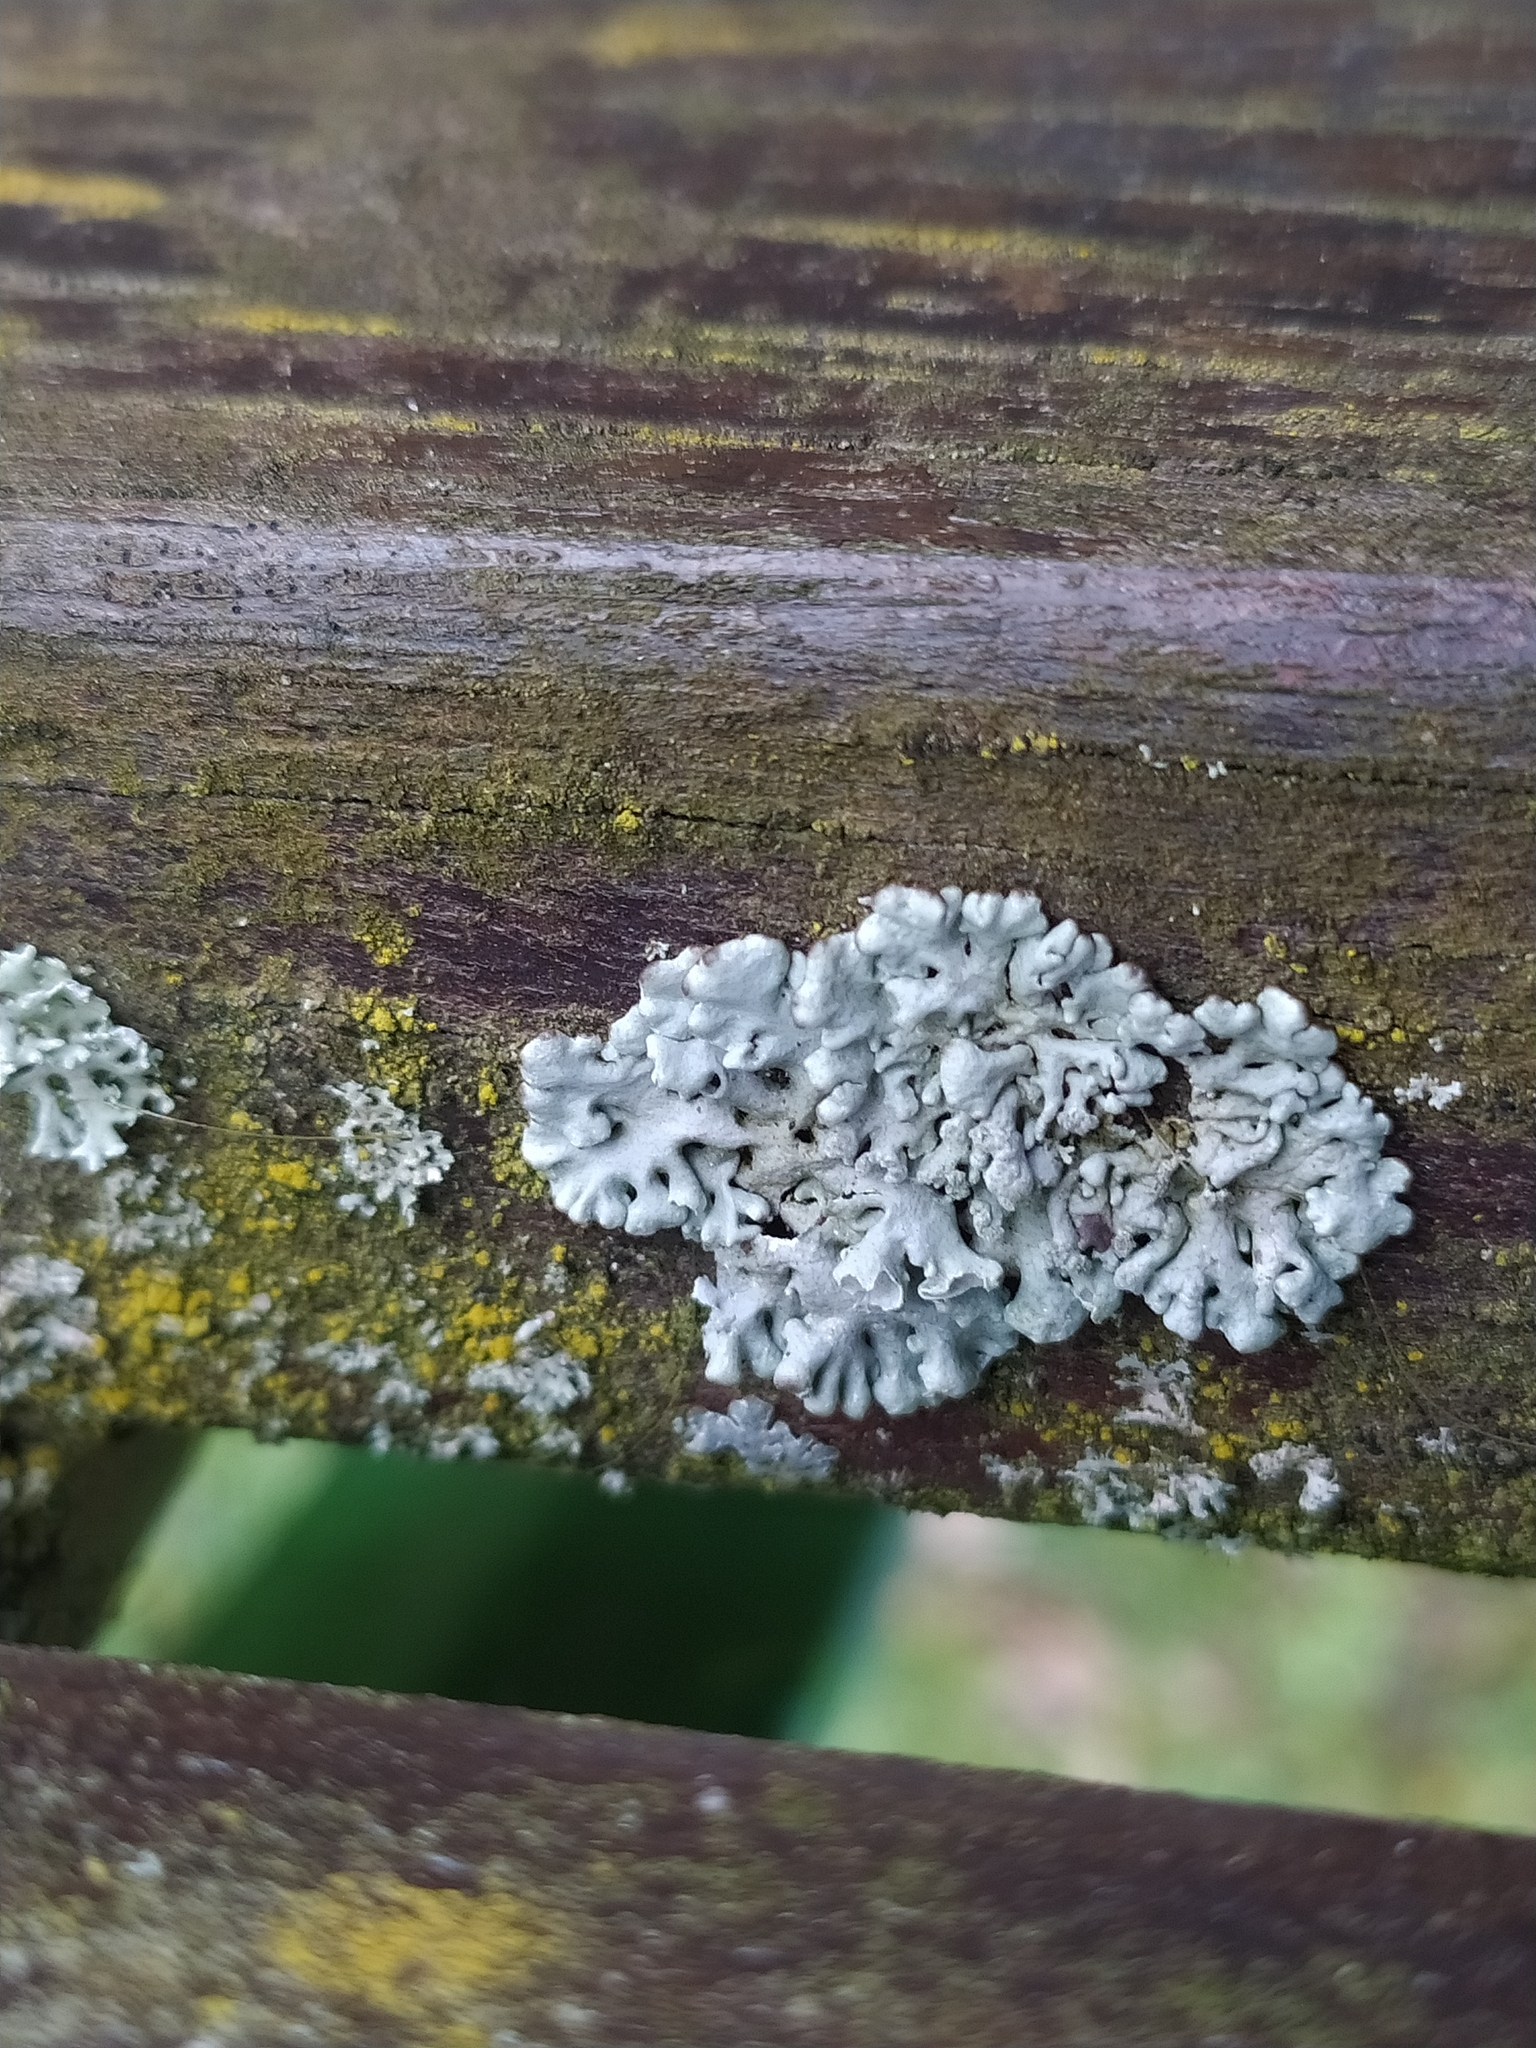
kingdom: Fungi
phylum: Ascomycota
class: Lecanoromycetes
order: Lecanorales
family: Parmeliaceae
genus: Hypogymnia
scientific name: Hypogymnia physodes
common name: Dark crottle
